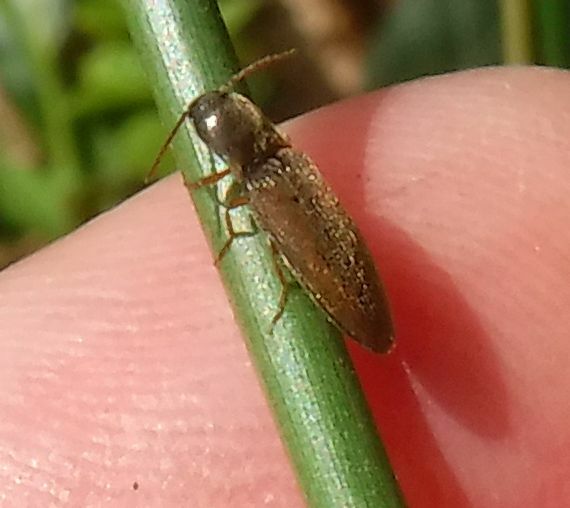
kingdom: Animalia
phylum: Arthropoda
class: Insecta
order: Coleoptera
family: Elateridae
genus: Agriotes
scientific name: Agriotes pallidulus
